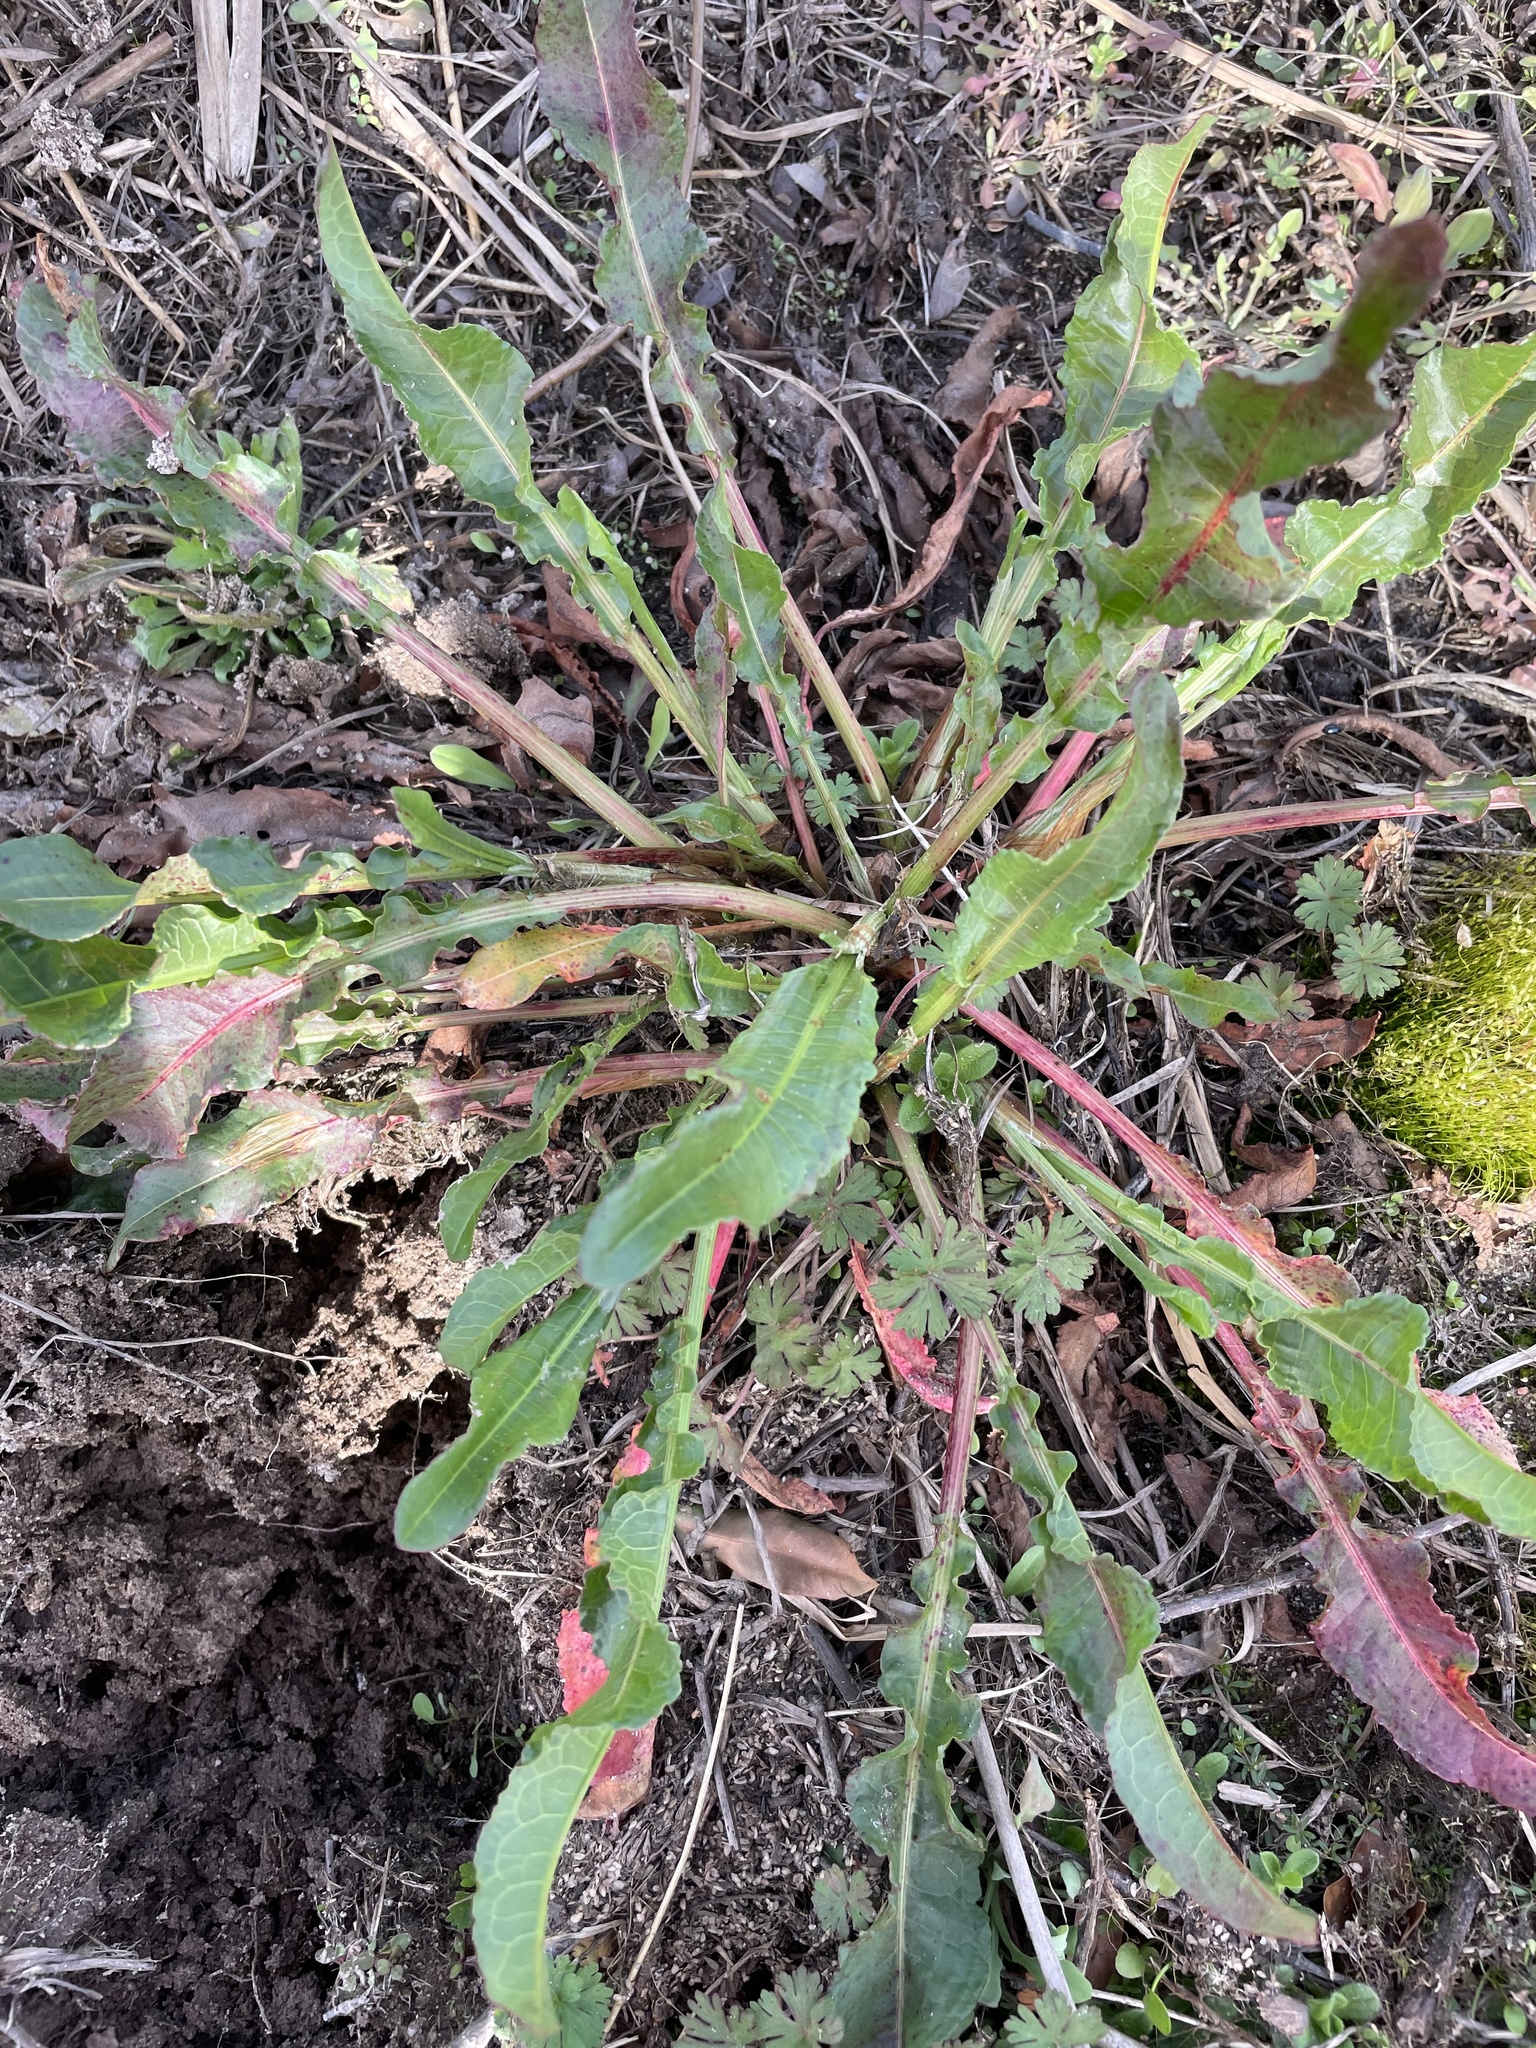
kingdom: Plantae
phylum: Tracheophyta
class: Magnoliopsida
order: Caryophyllales
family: Polygonaceae
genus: Rumex
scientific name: Rumex crispus
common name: Curled dock
